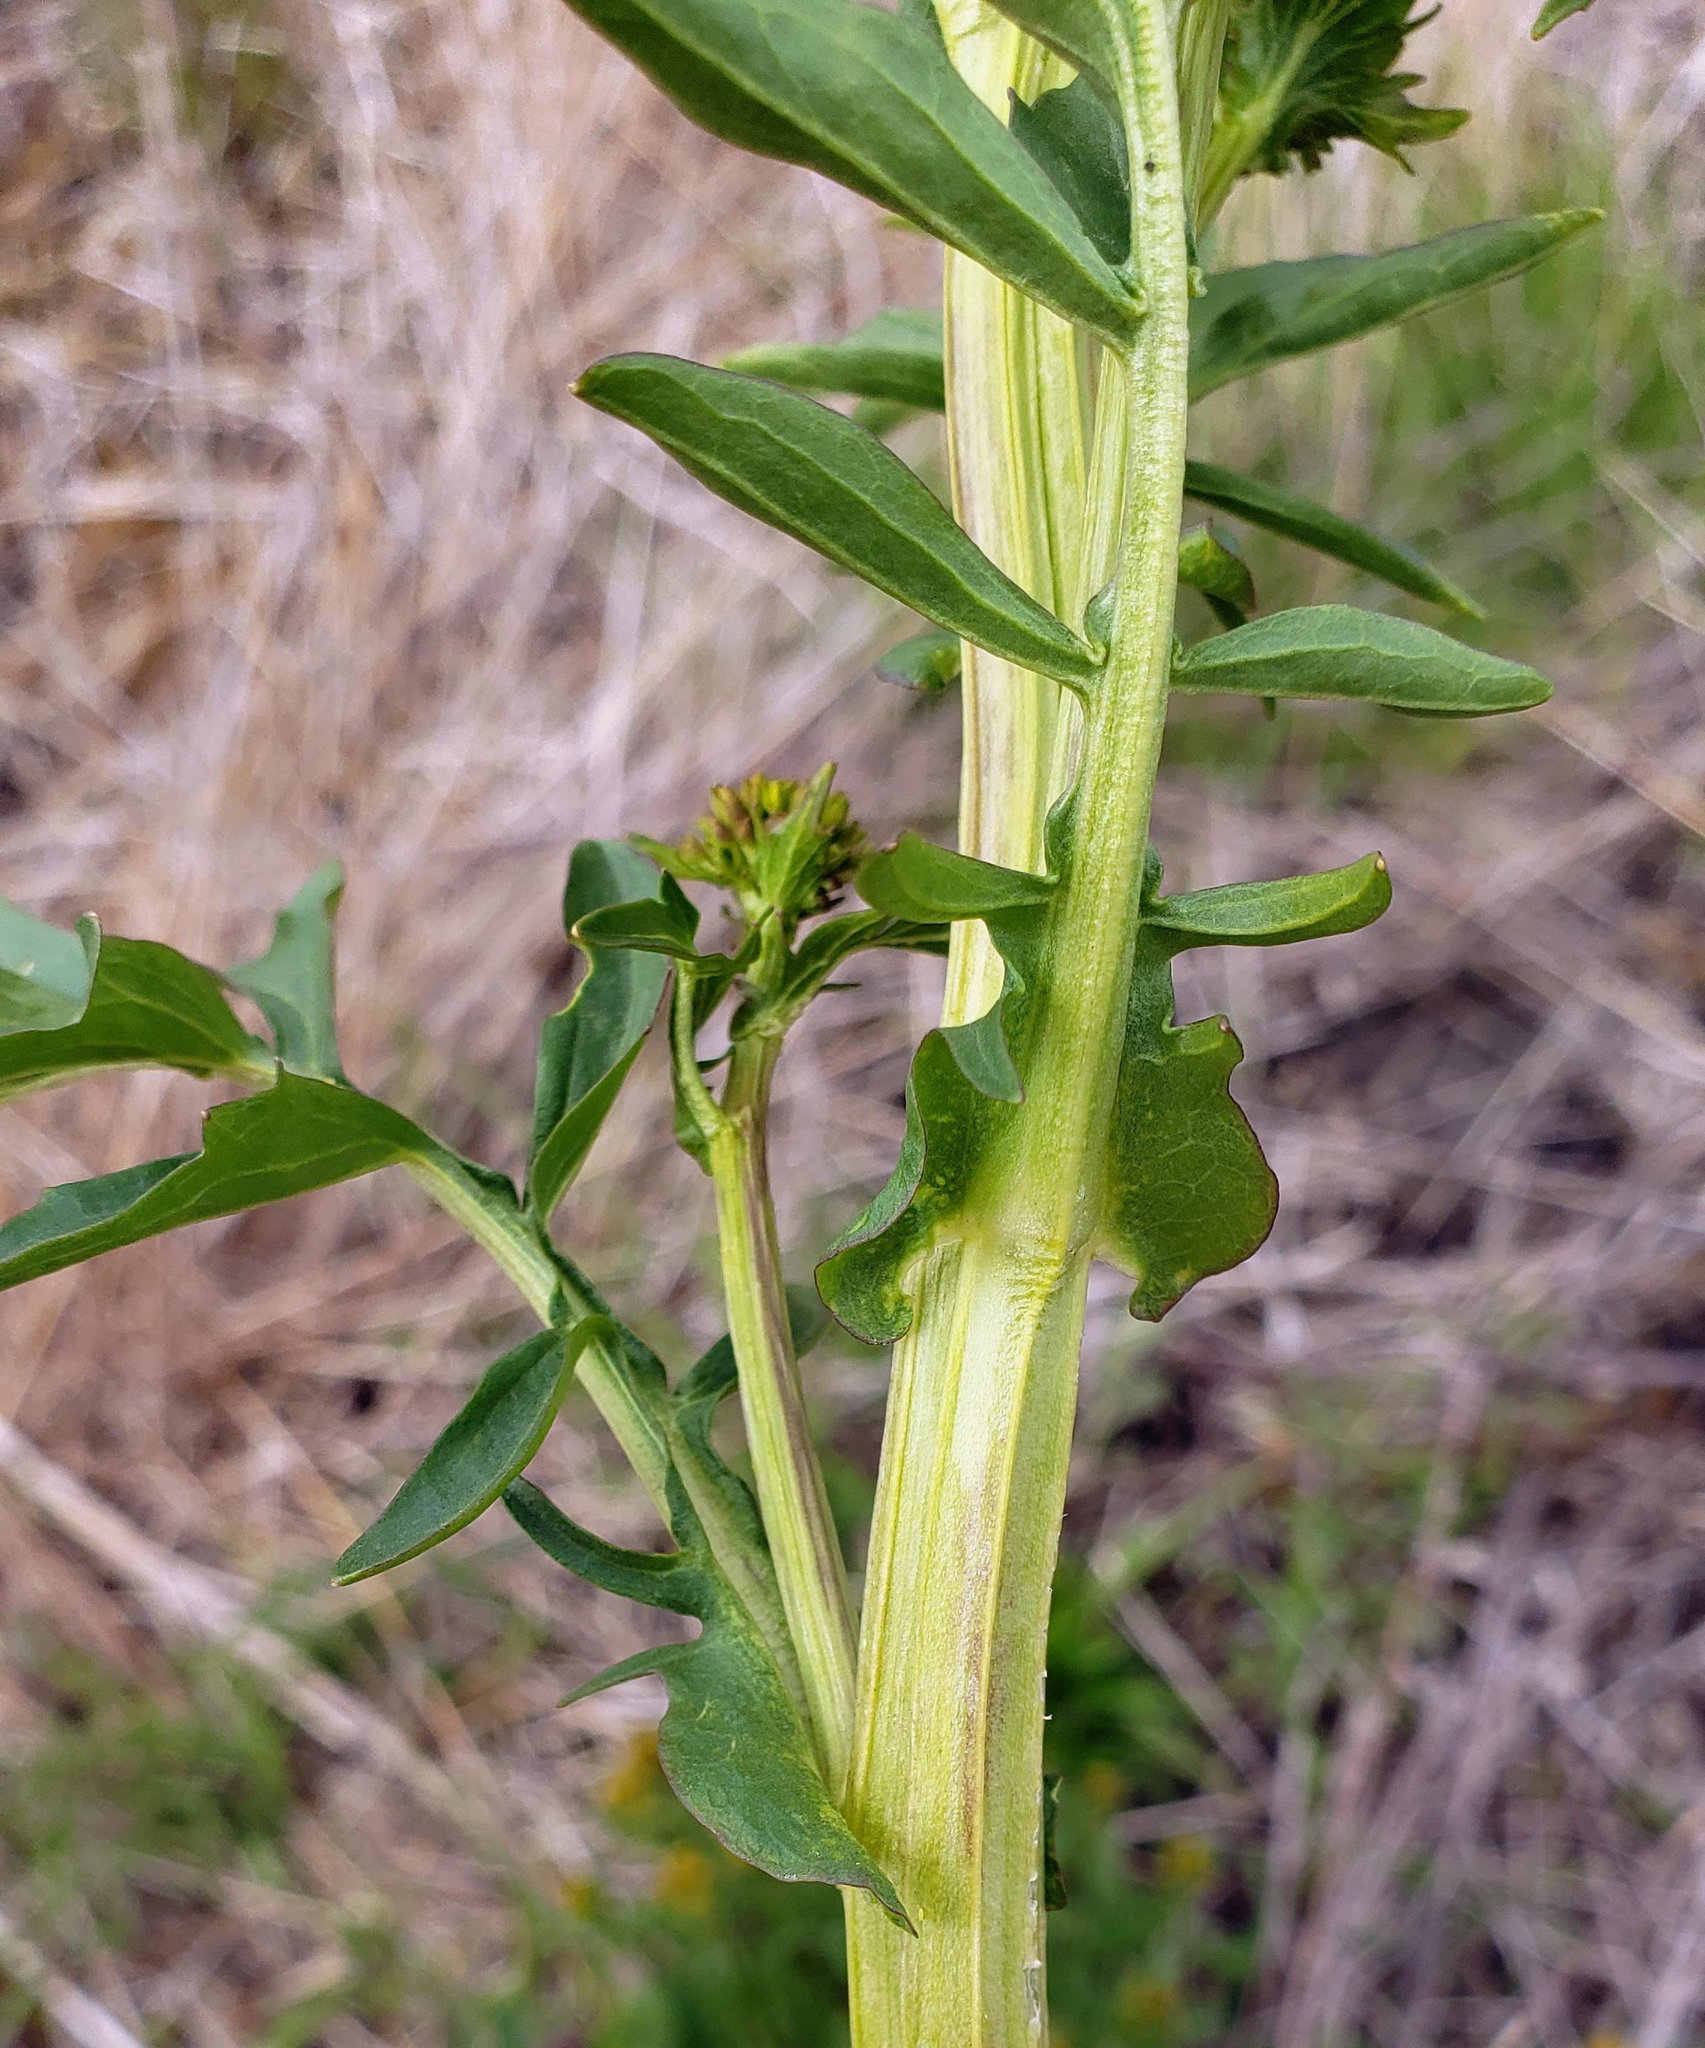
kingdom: Plantae
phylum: Tracheophyta
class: Magnoliopsida
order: Brassicales
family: Brassicaceae
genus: Barbarea
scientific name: Barbarea vulgaris
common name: Cressy-greens
